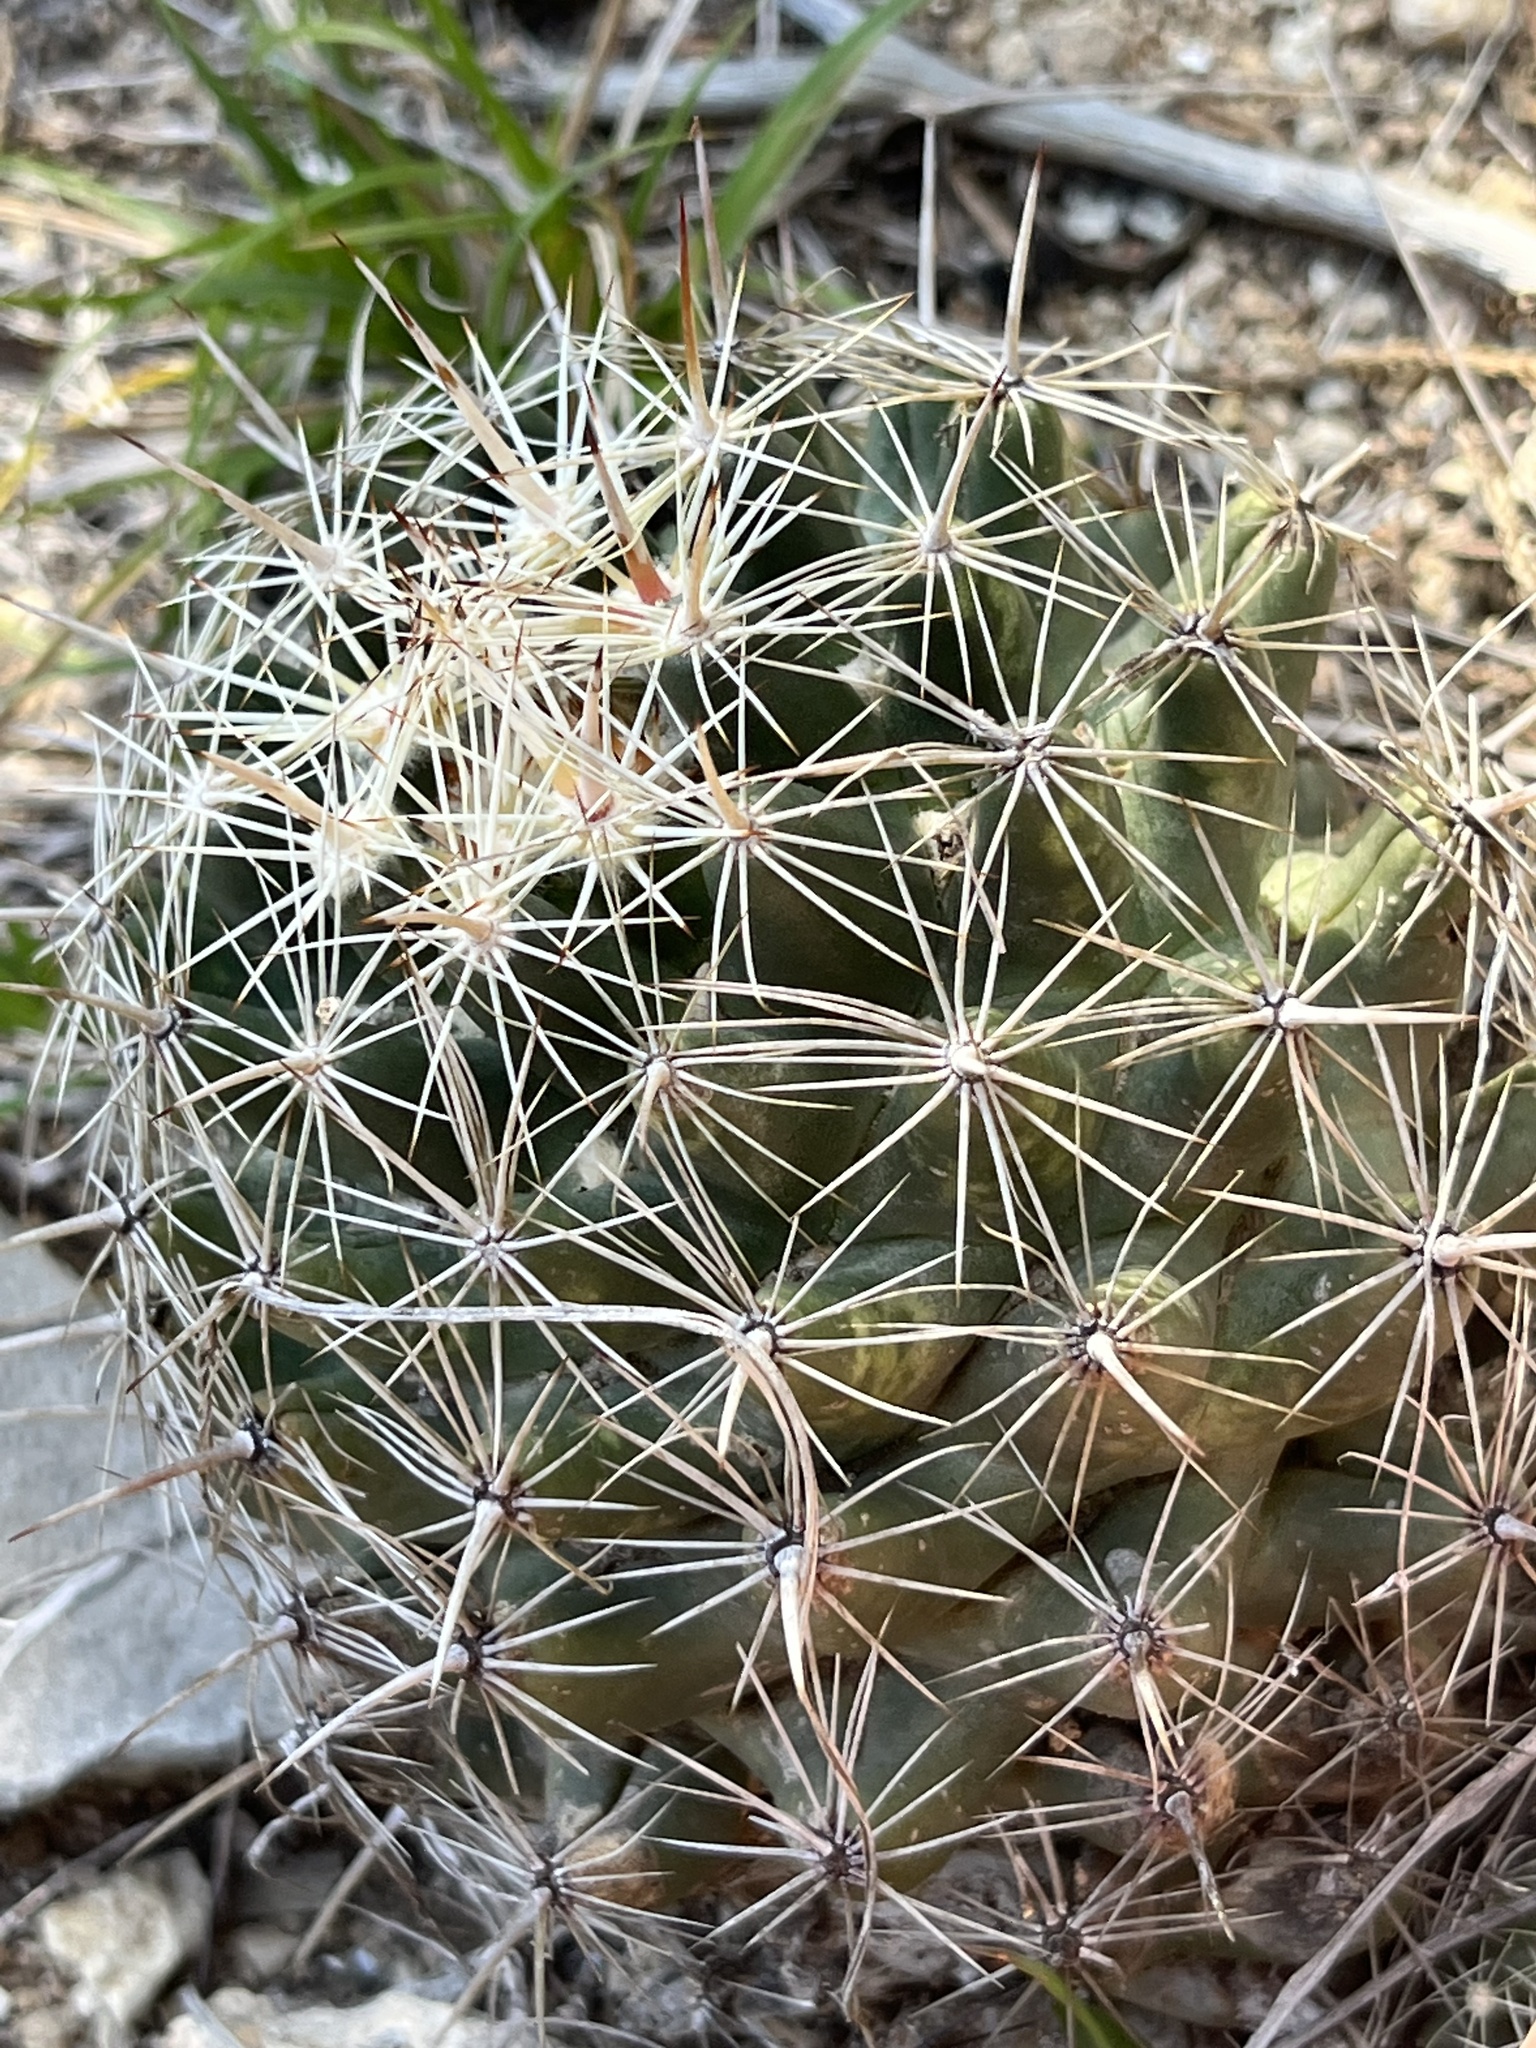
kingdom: Plantae
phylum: Tracheophyta
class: Magnoliopsida
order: Caryophyllales
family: Cactaceae
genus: Coryphantha
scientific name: Coryphantha sulcata
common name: Finger cactus
